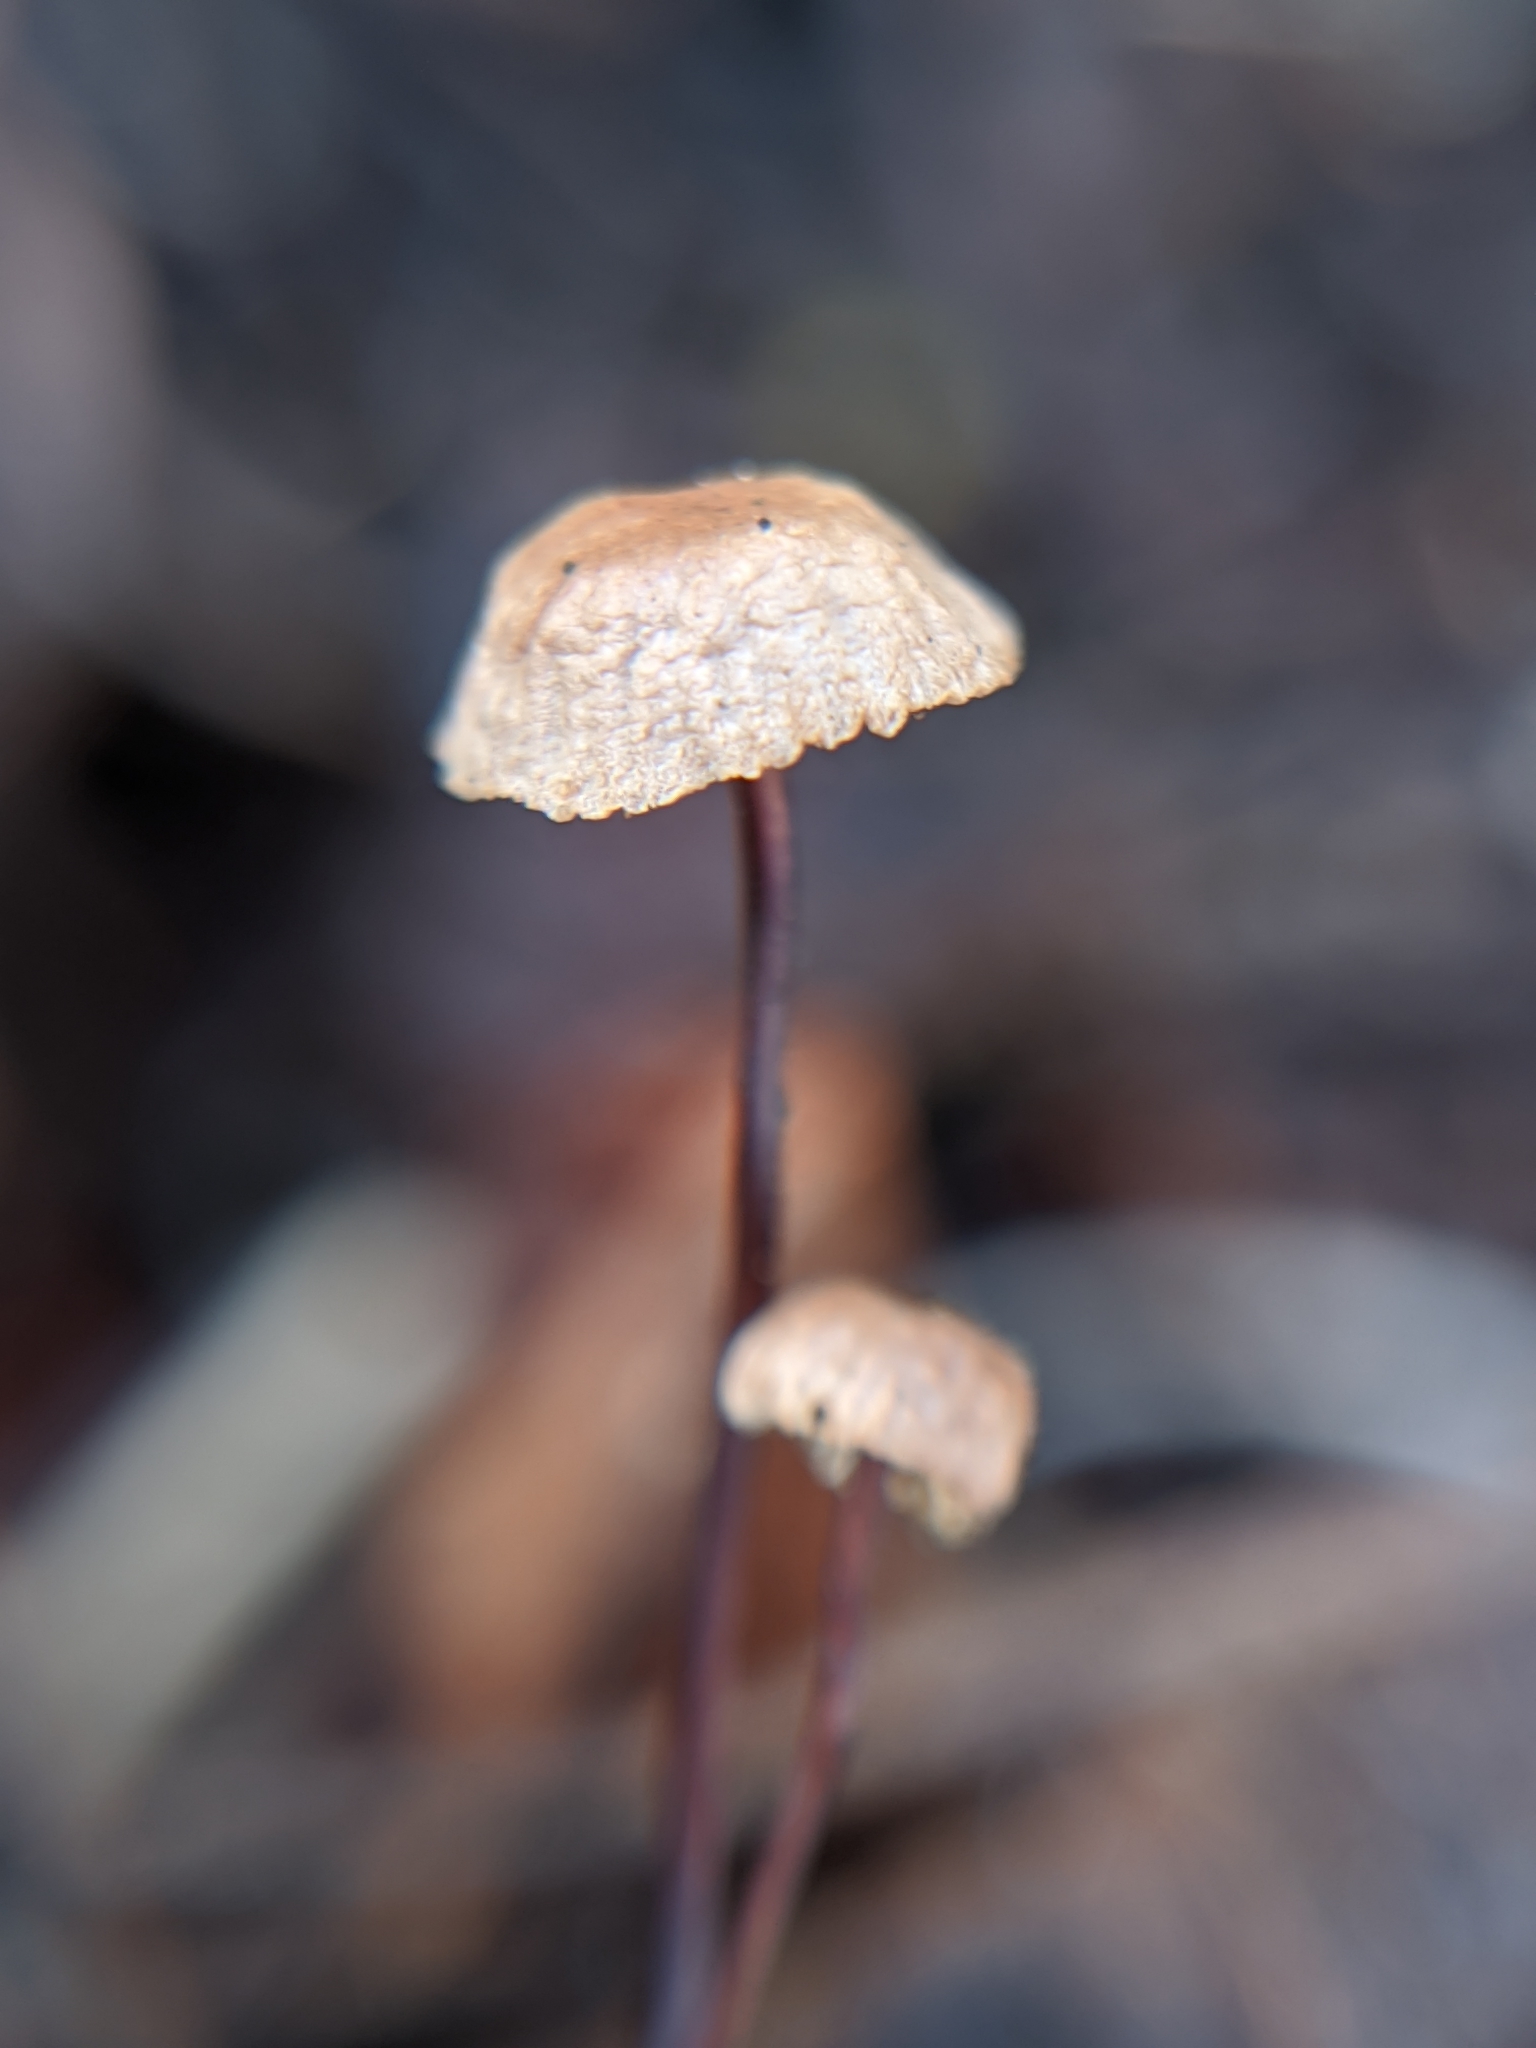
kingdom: Fungi
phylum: Basidiomycota
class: Agaricomycetes
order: Agaricales
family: Omphalotaceae
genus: Gymnopus
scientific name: Gymnopus androsaceus
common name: Horse-hair fungus
